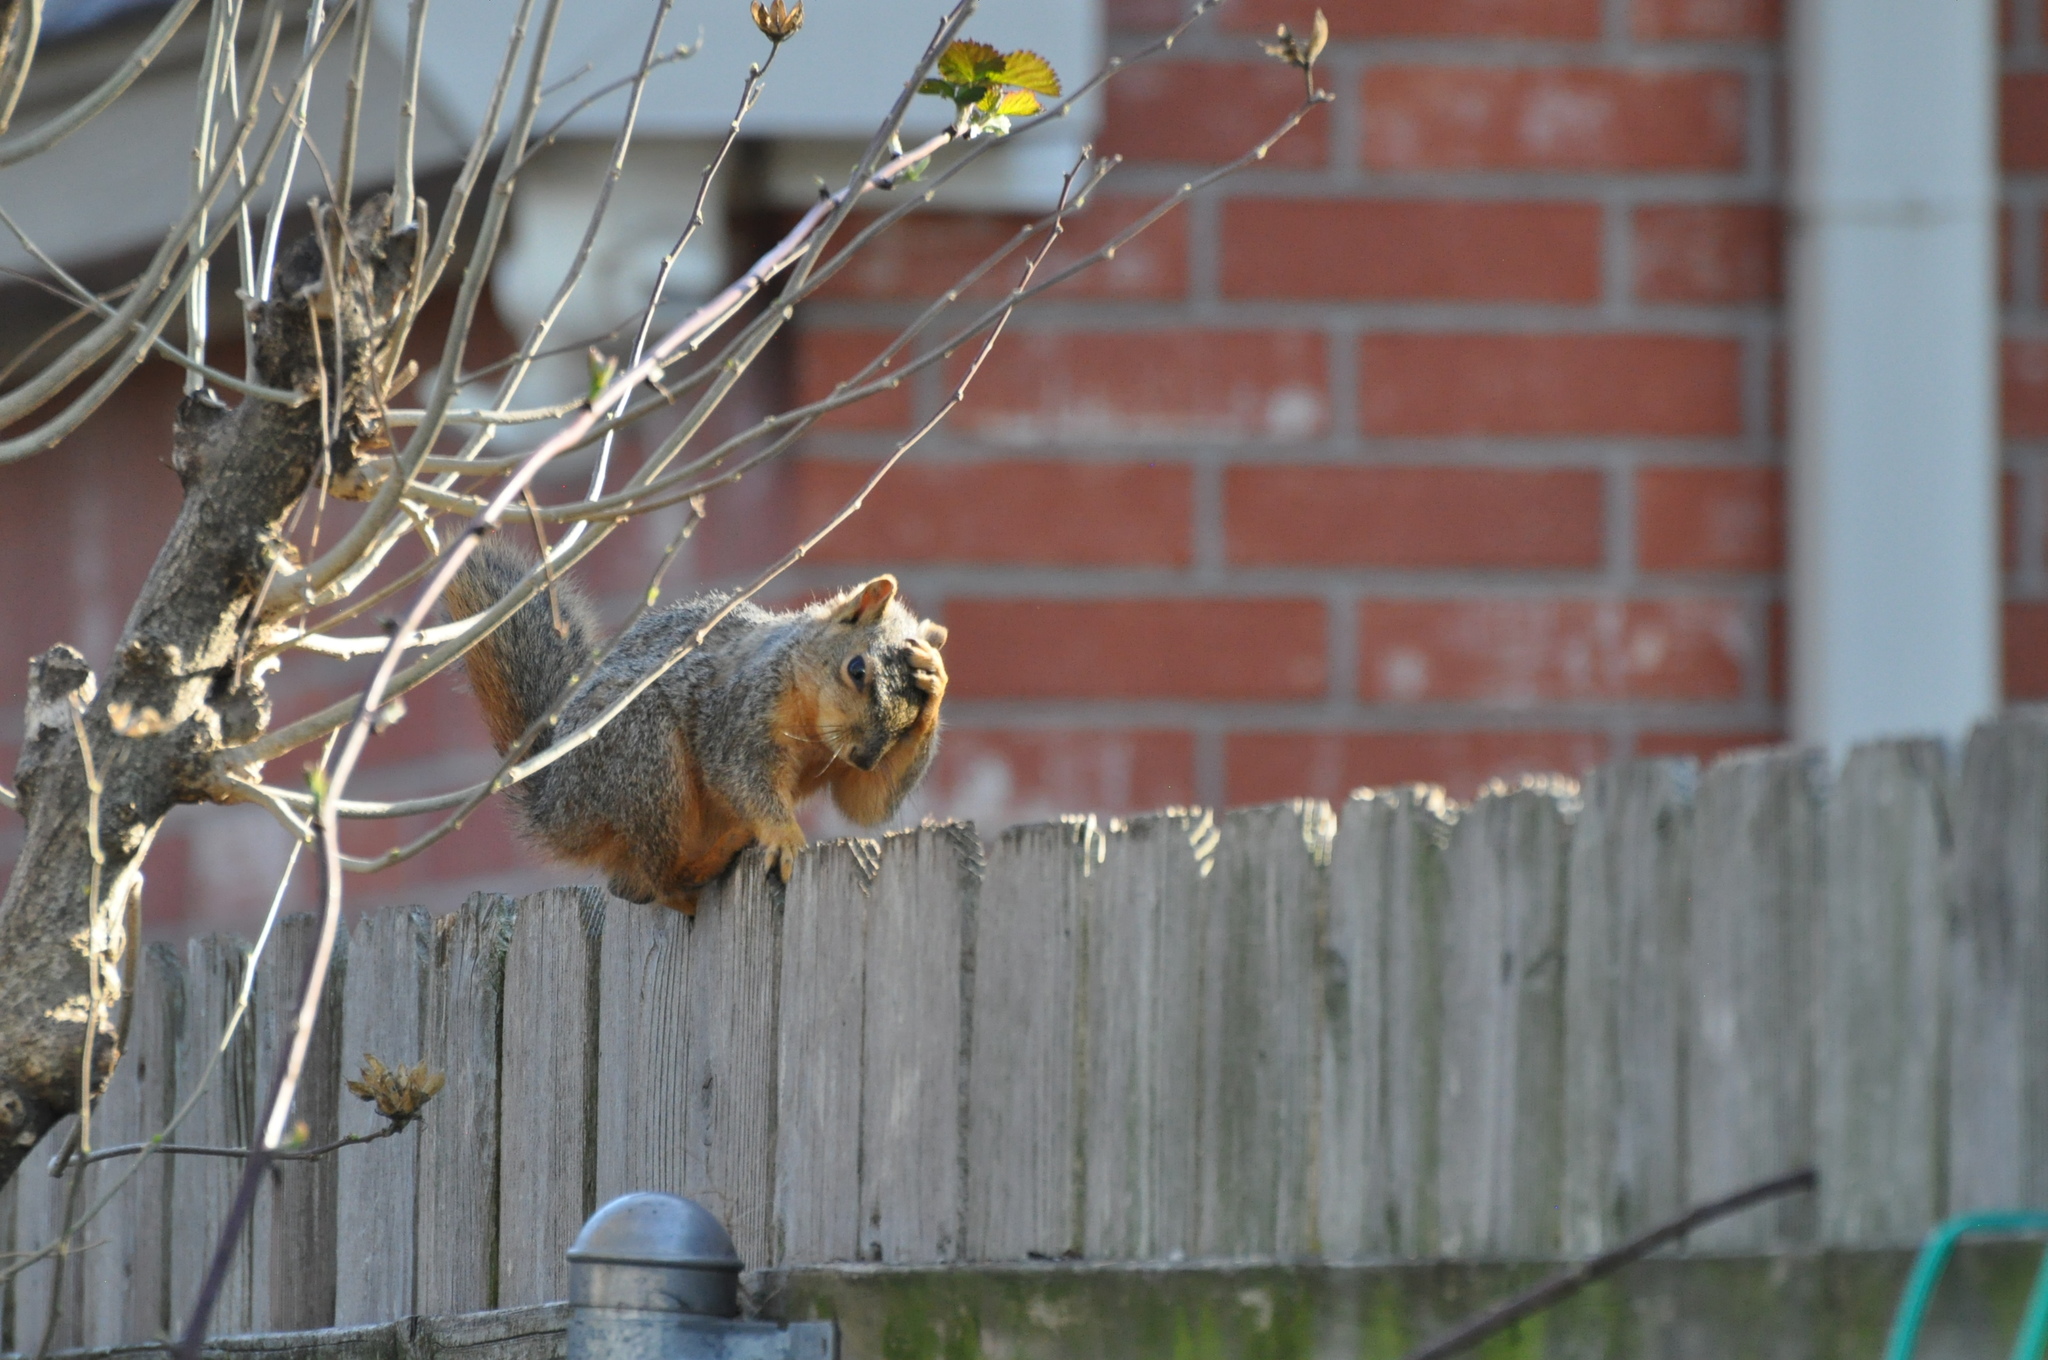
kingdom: Animalia
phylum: Chordata
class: Mammalia
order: Rodentia
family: Sciuridae
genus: Sciurus
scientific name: Sciurus niger
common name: Fox squirrel
